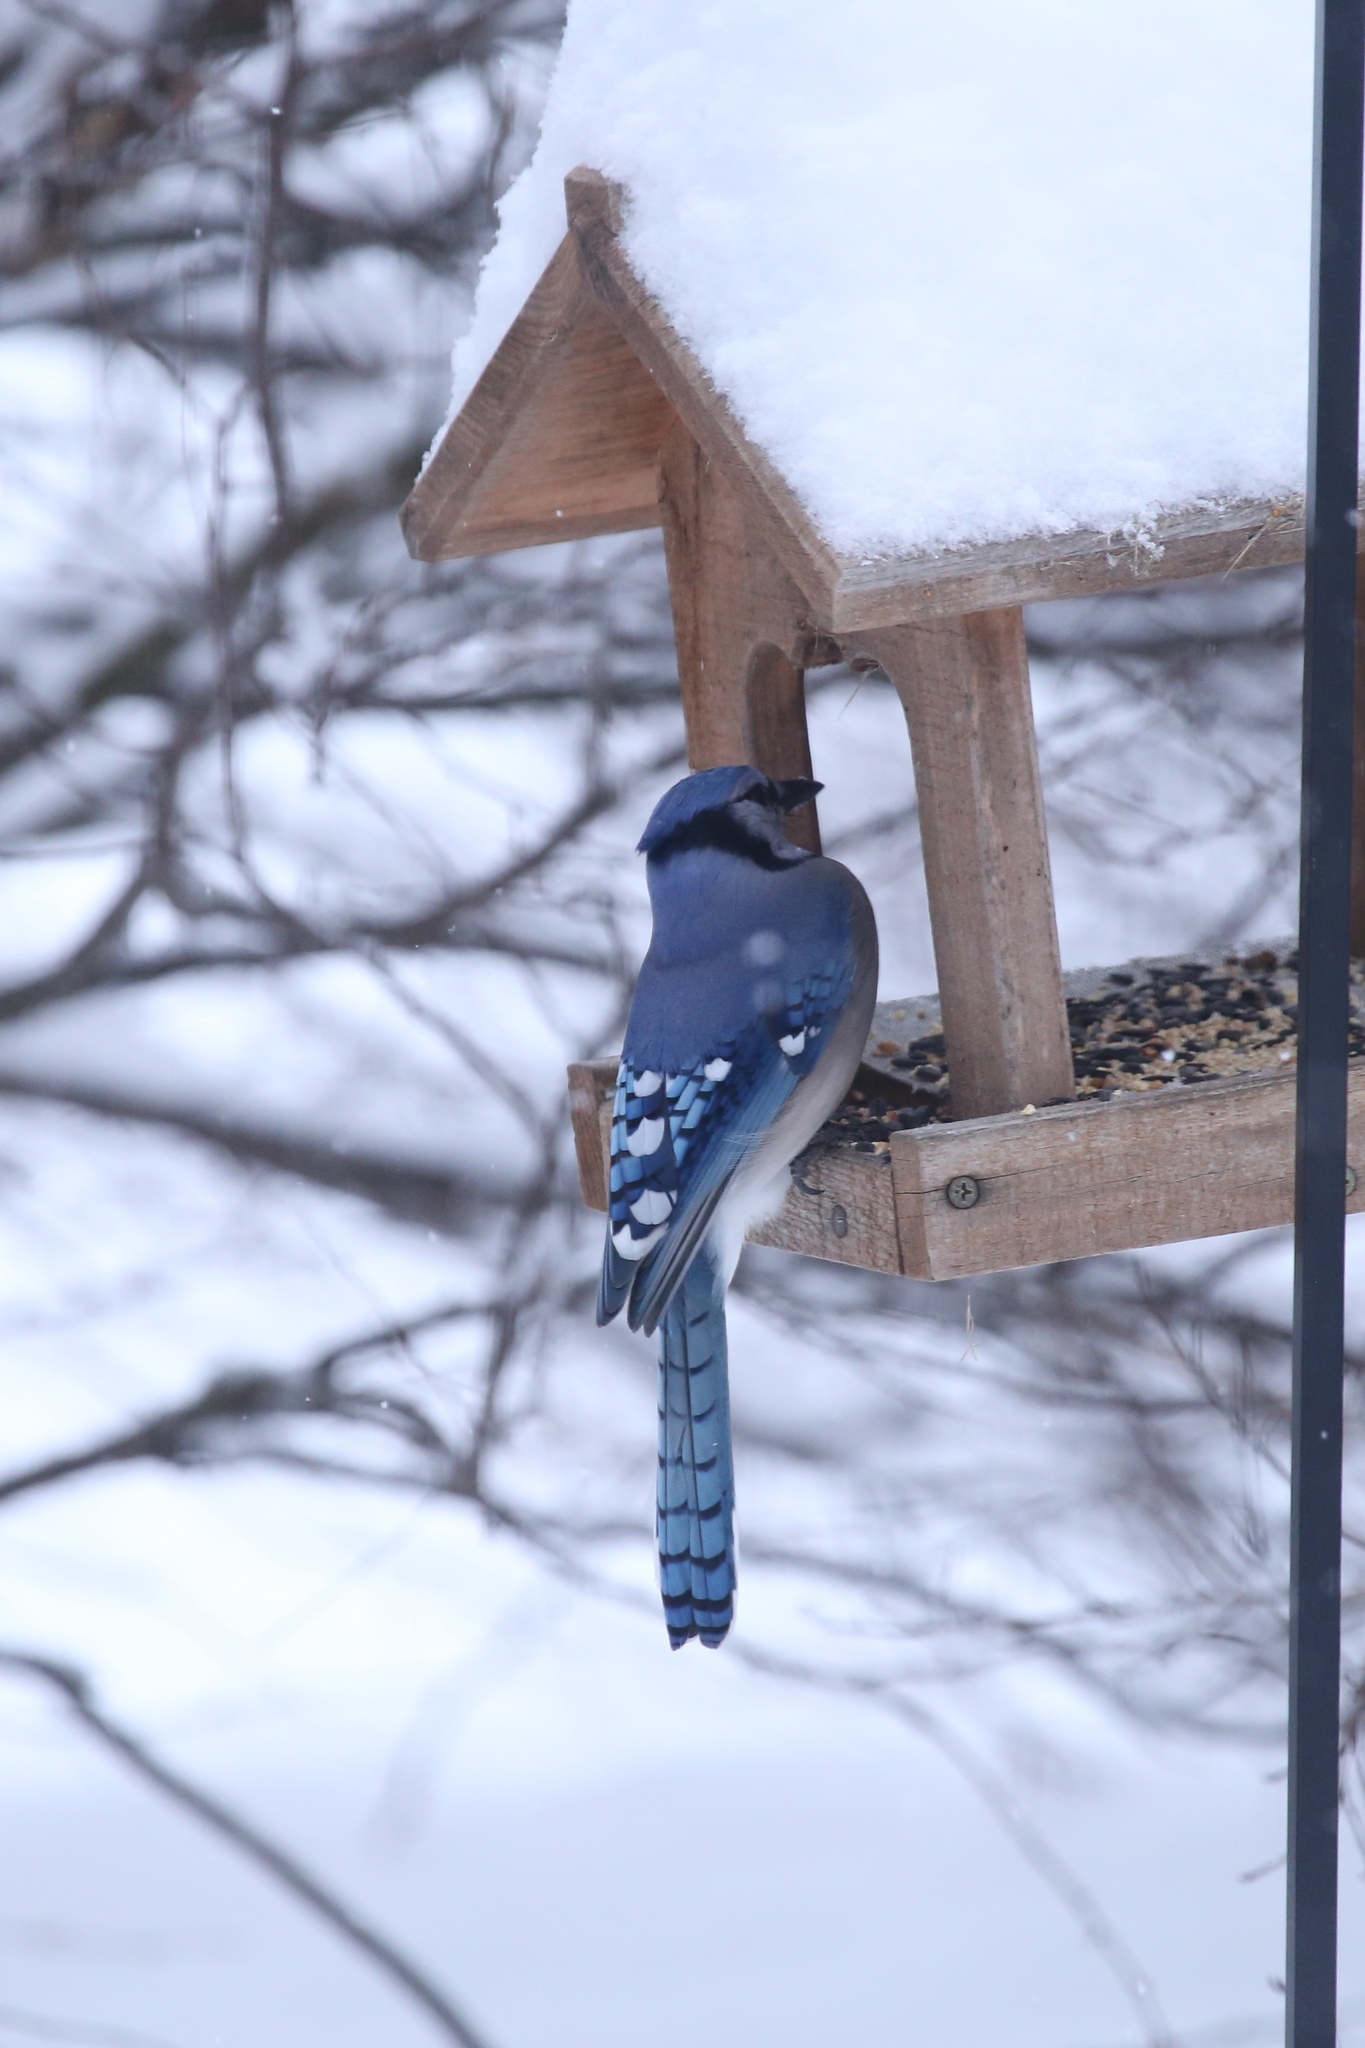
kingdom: Animalia
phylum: Chordata
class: Aves
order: Passeriformes
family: Corvidae
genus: Cyanocitta
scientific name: Cyanocitta cristata
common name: Blue jay
